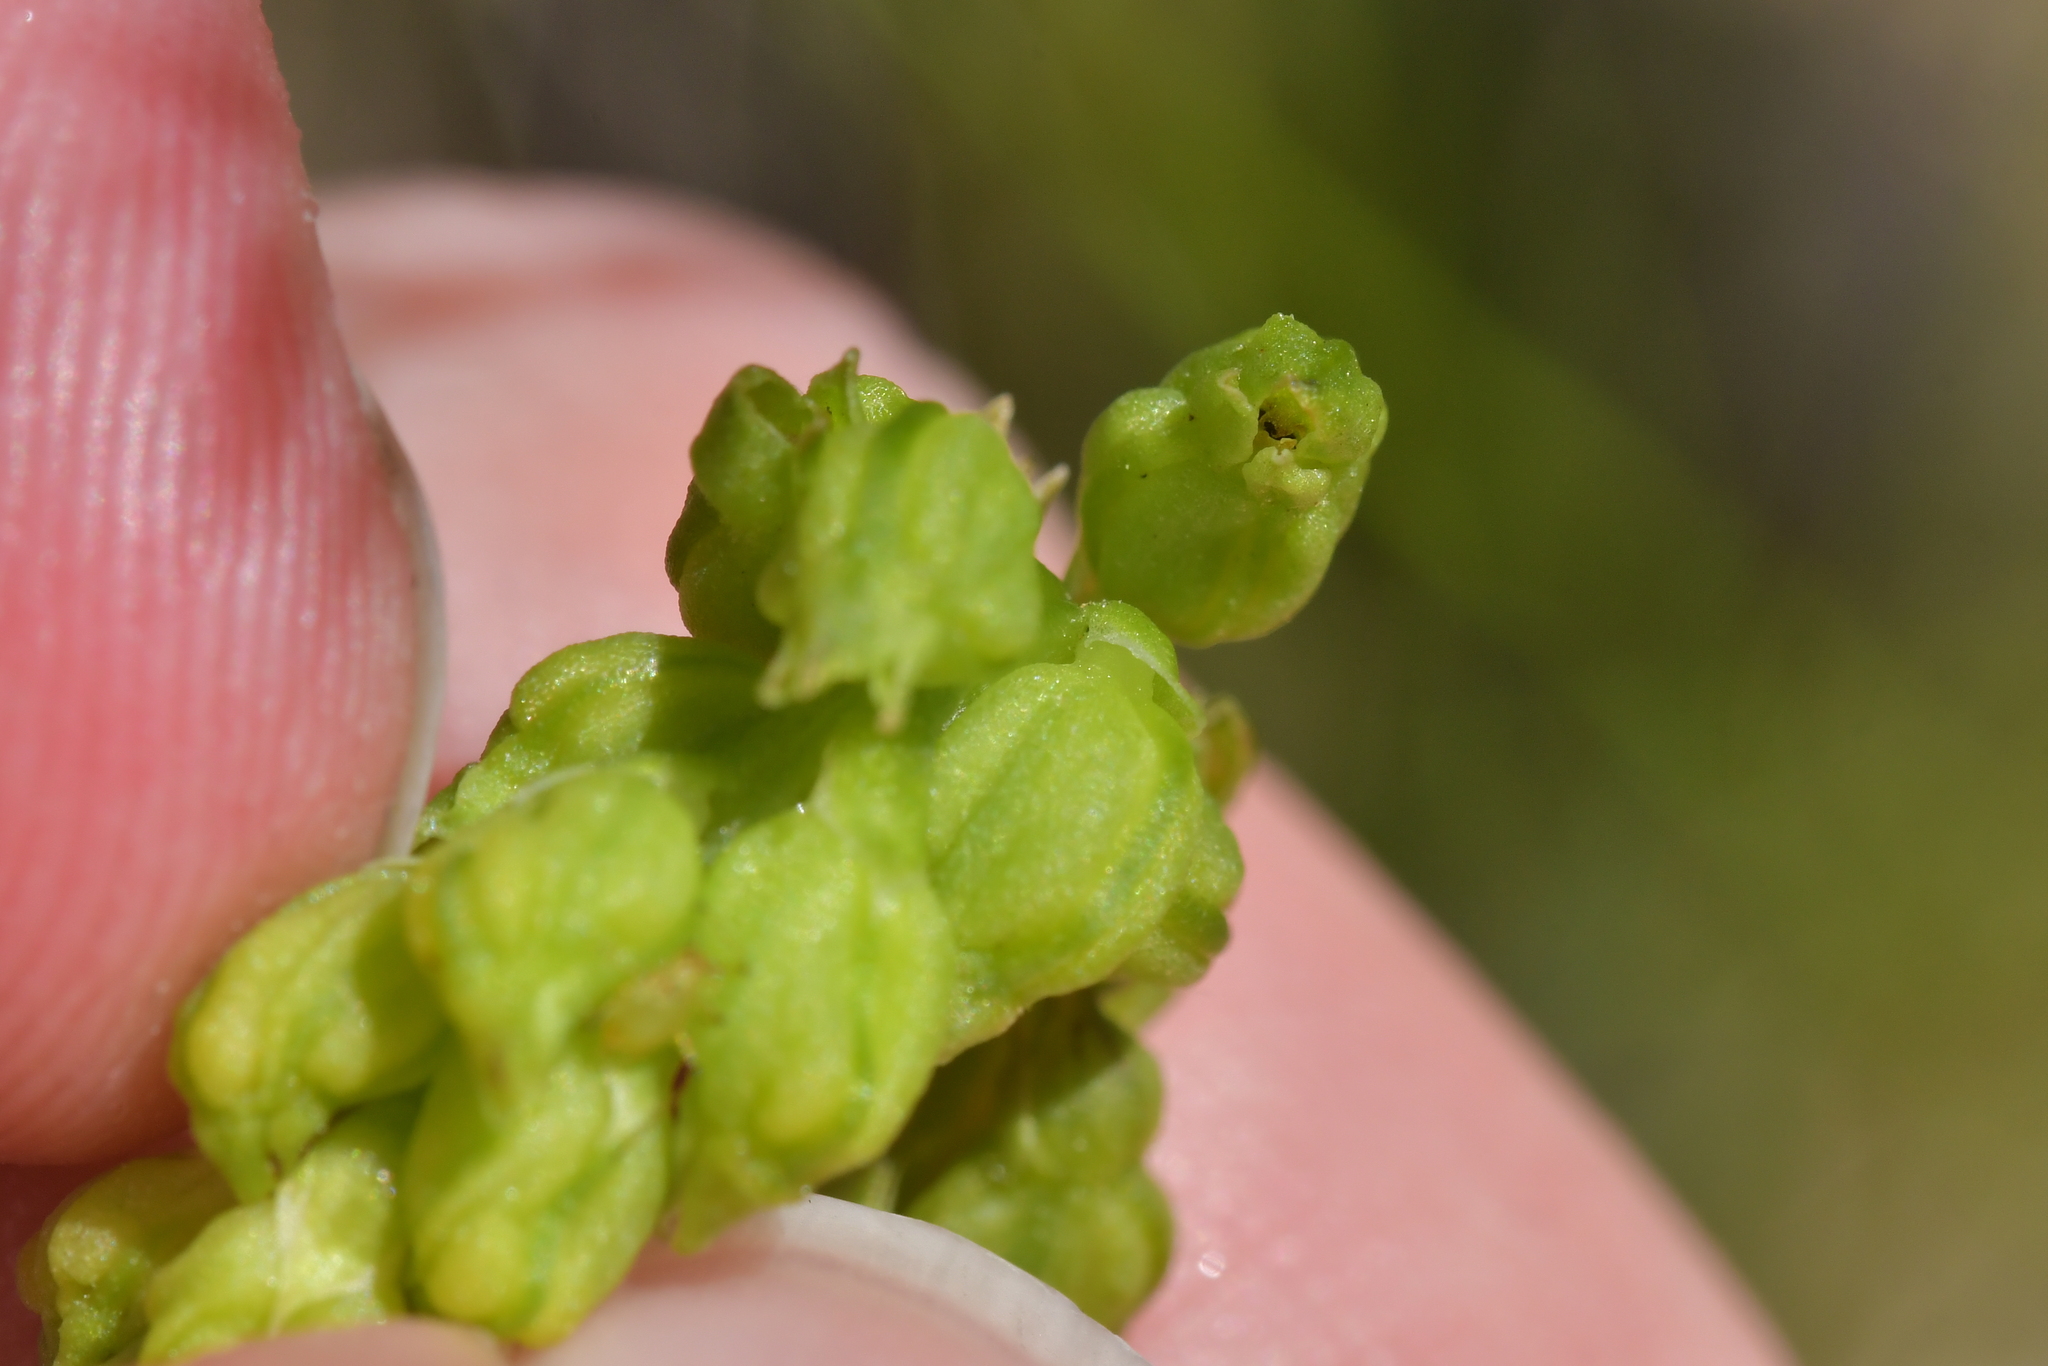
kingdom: Plantae
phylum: Tracheophyta
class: Liliopsida
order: Asparagales
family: Orchidaceae
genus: Microtis
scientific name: Microtis unifolia
